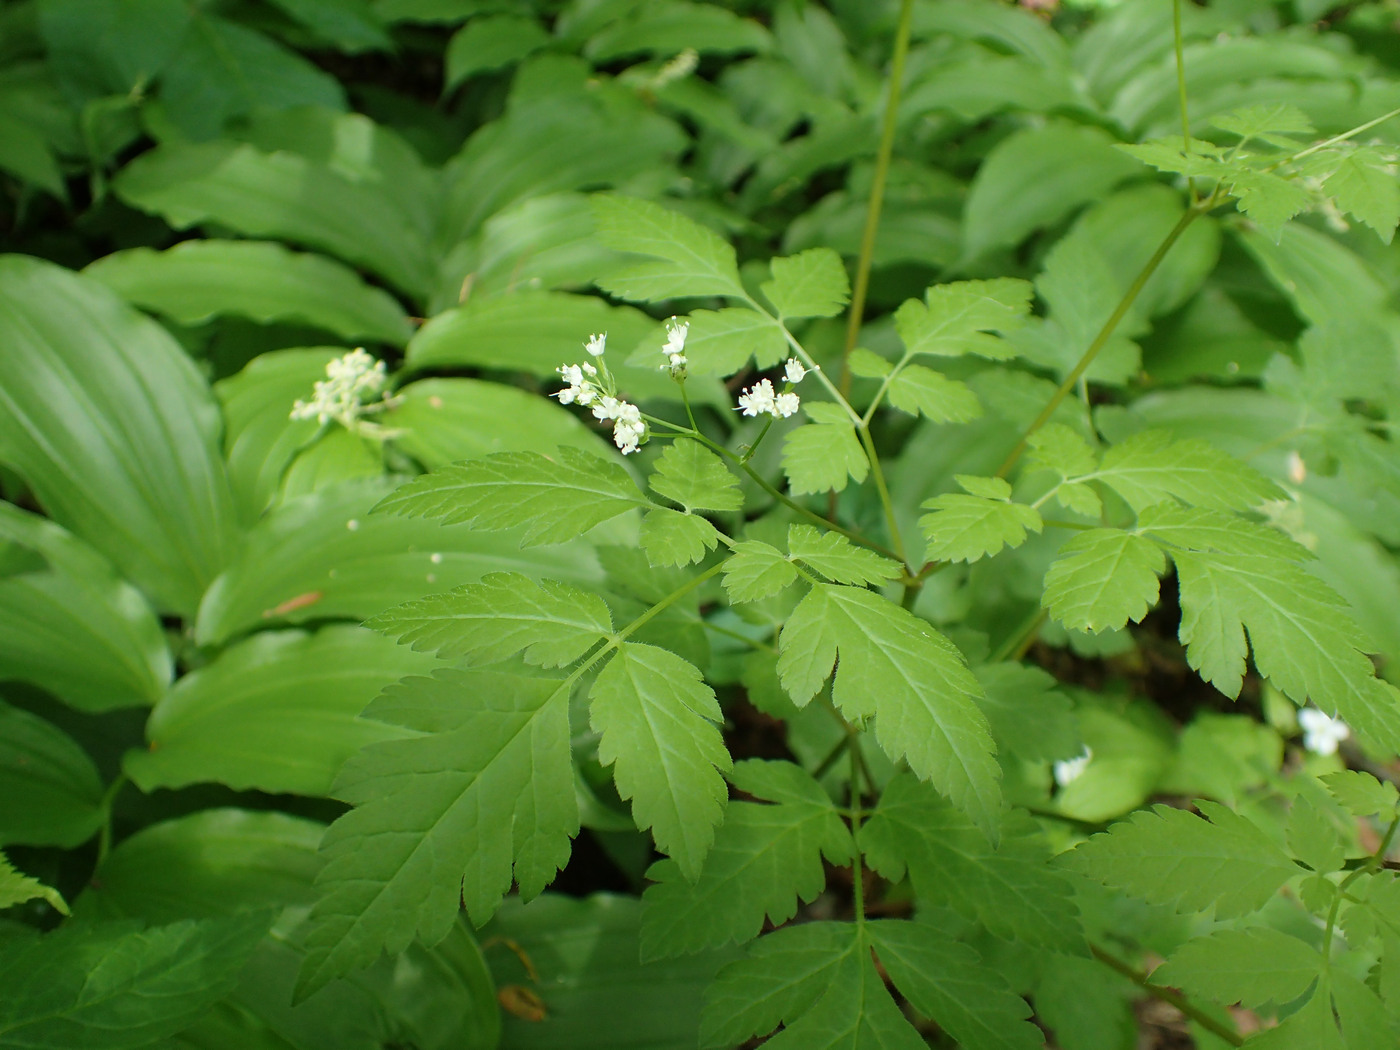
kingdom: Plantae
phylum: Tracheophyta
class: Magnoliopsida
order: Apiales
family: Apiaceae
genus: Osmorhiza
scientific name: Osmorhiza longistylis
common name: Smooth sweet cicely
